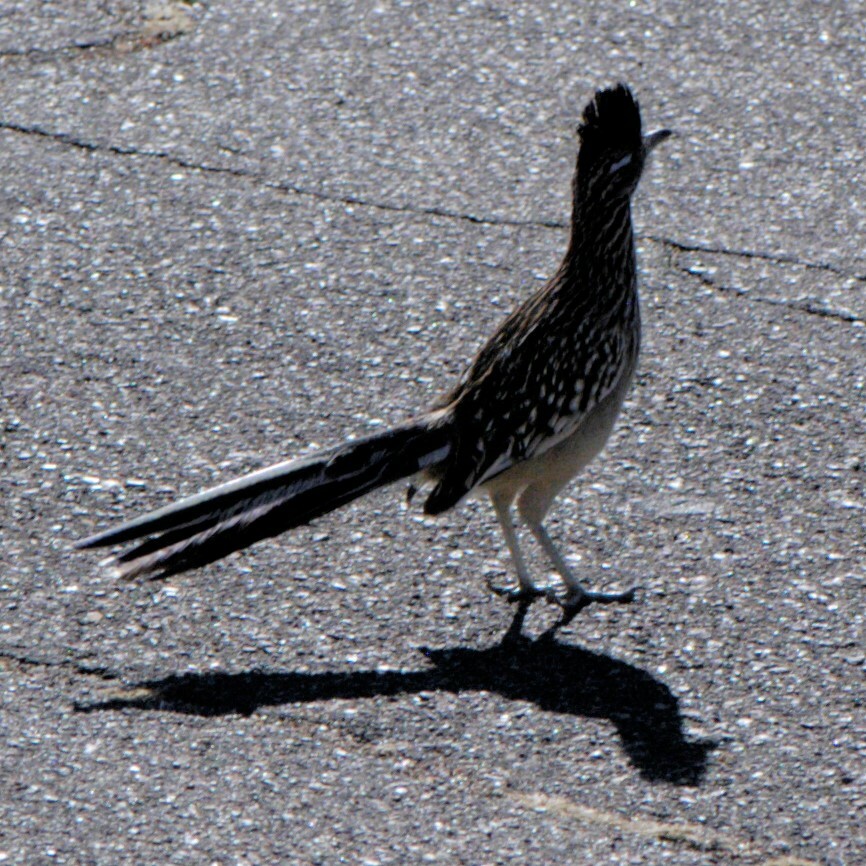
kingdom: Animalia
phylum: Chordata
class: Aves
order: Cuculiformes
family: Cuculidae
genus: Geococcyx
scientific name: Geococcyx californianus
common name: Greater roadrunner
